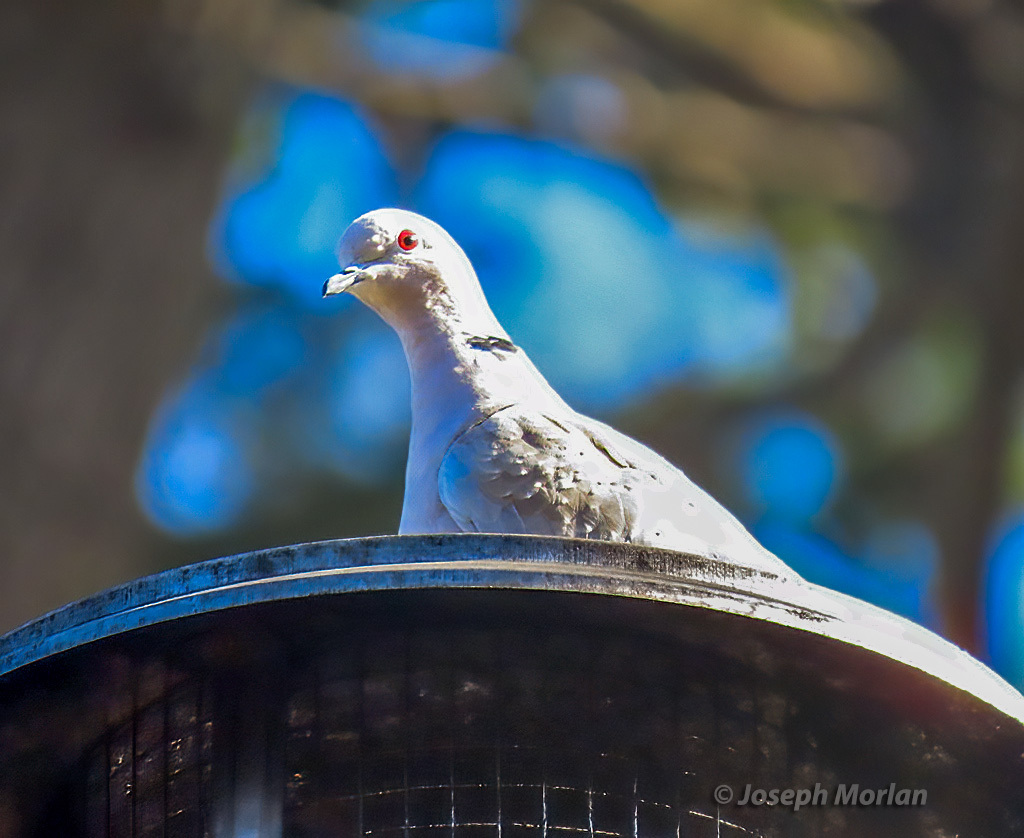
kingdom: Animalia
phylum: Chordata
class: Aves
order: Columbiformes
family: Columbidae
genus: Streptopelia
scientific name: Streptopelia decaocto
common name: Eurasian collared dove
